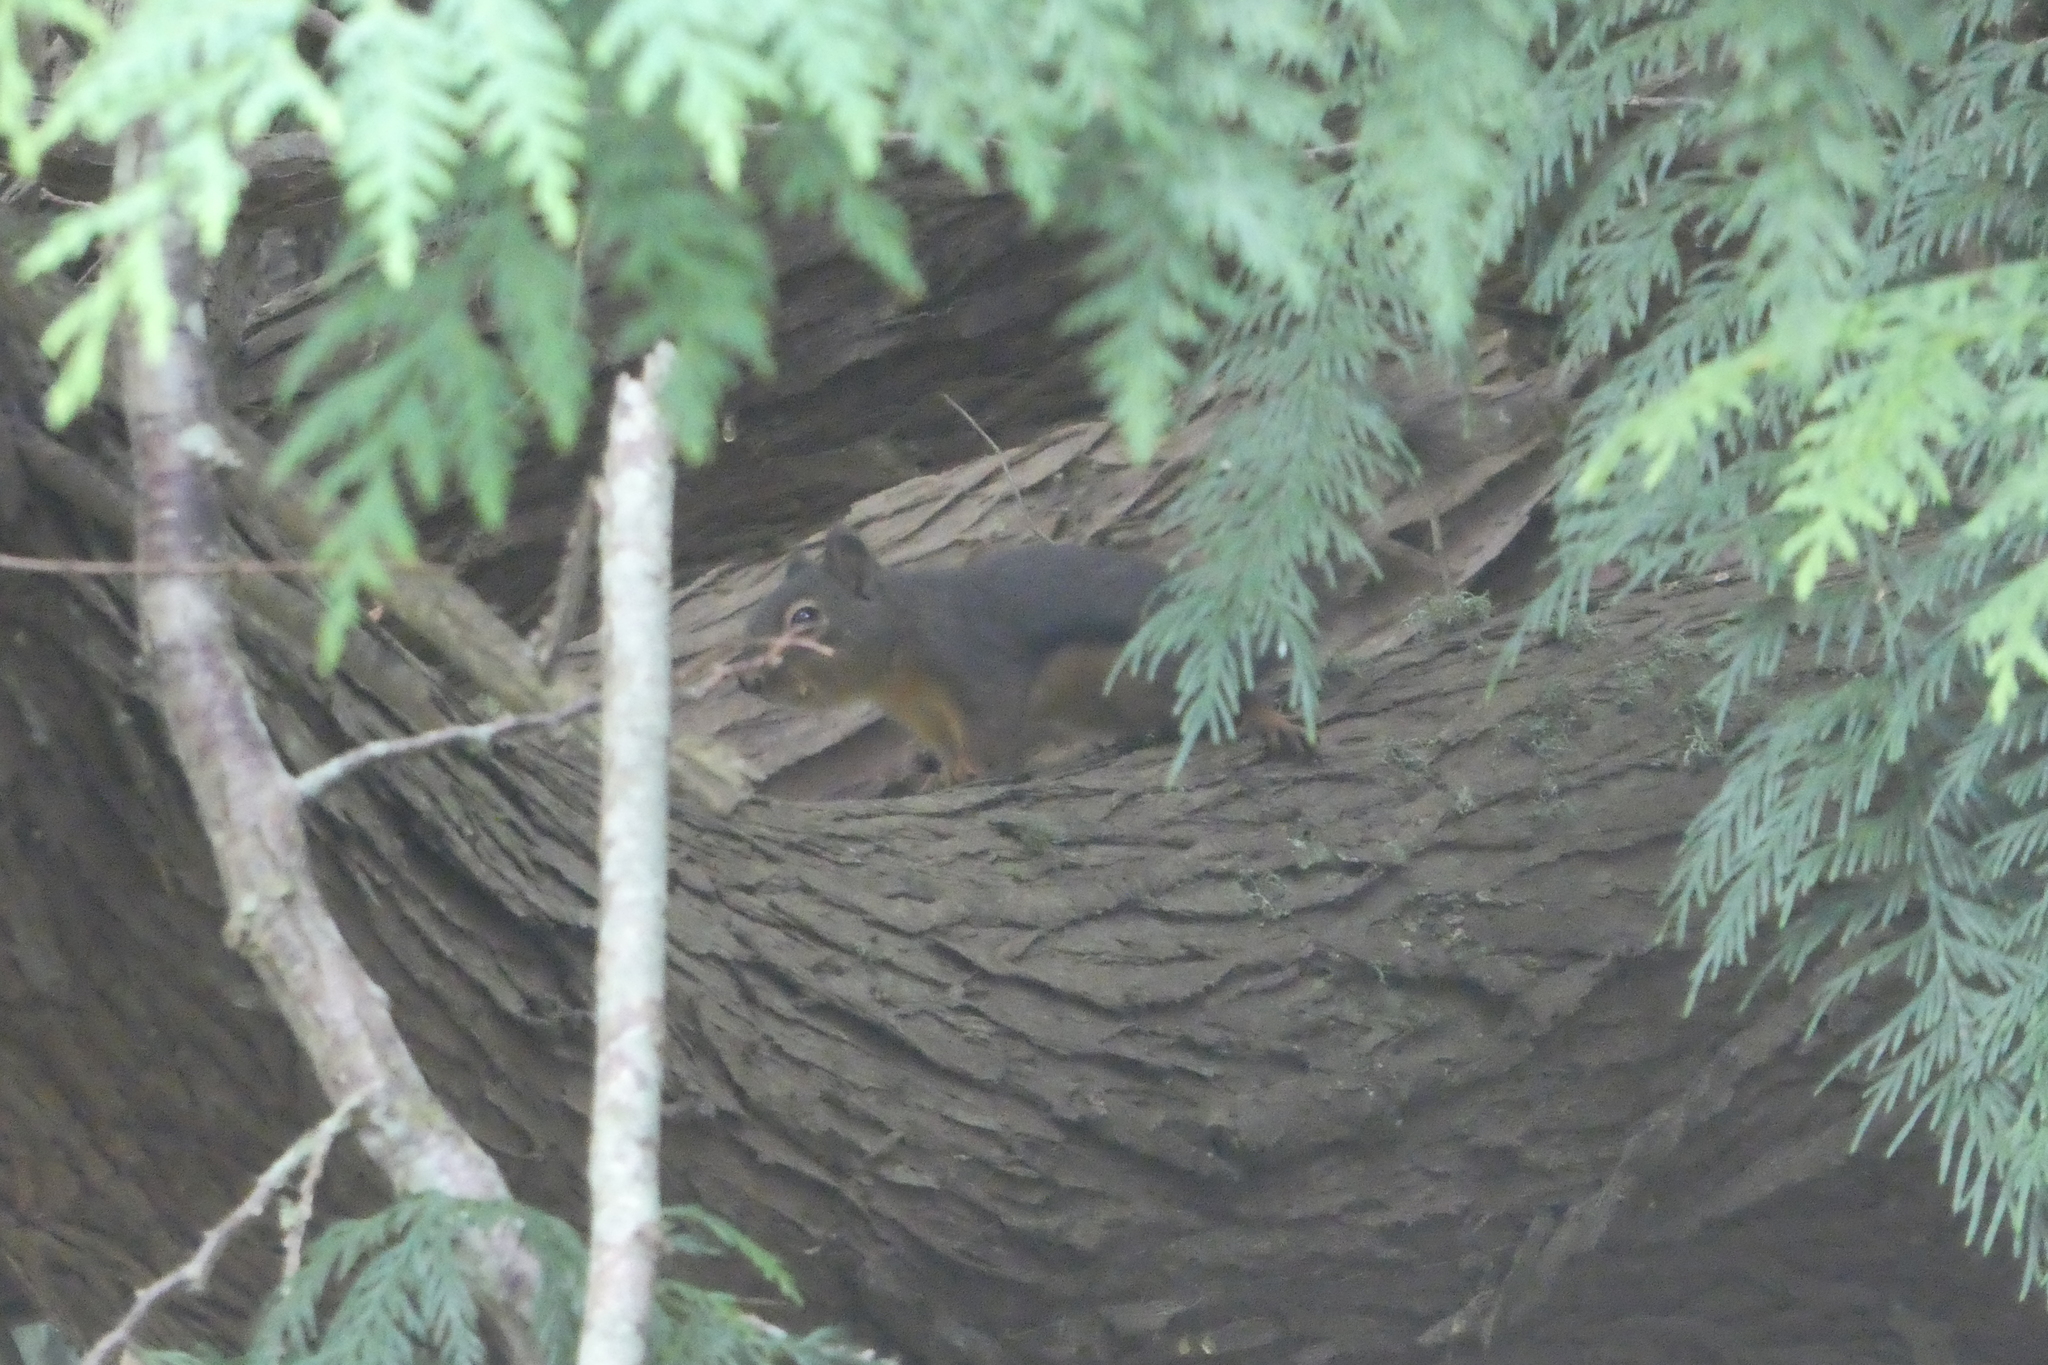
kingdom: Animalia
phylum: Chordata
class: Mammalia
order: Rodentia
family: Sciuridae
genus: Tamiasciurus
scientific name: Tamiasciurus douglasii
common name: Douglas's squirrel
